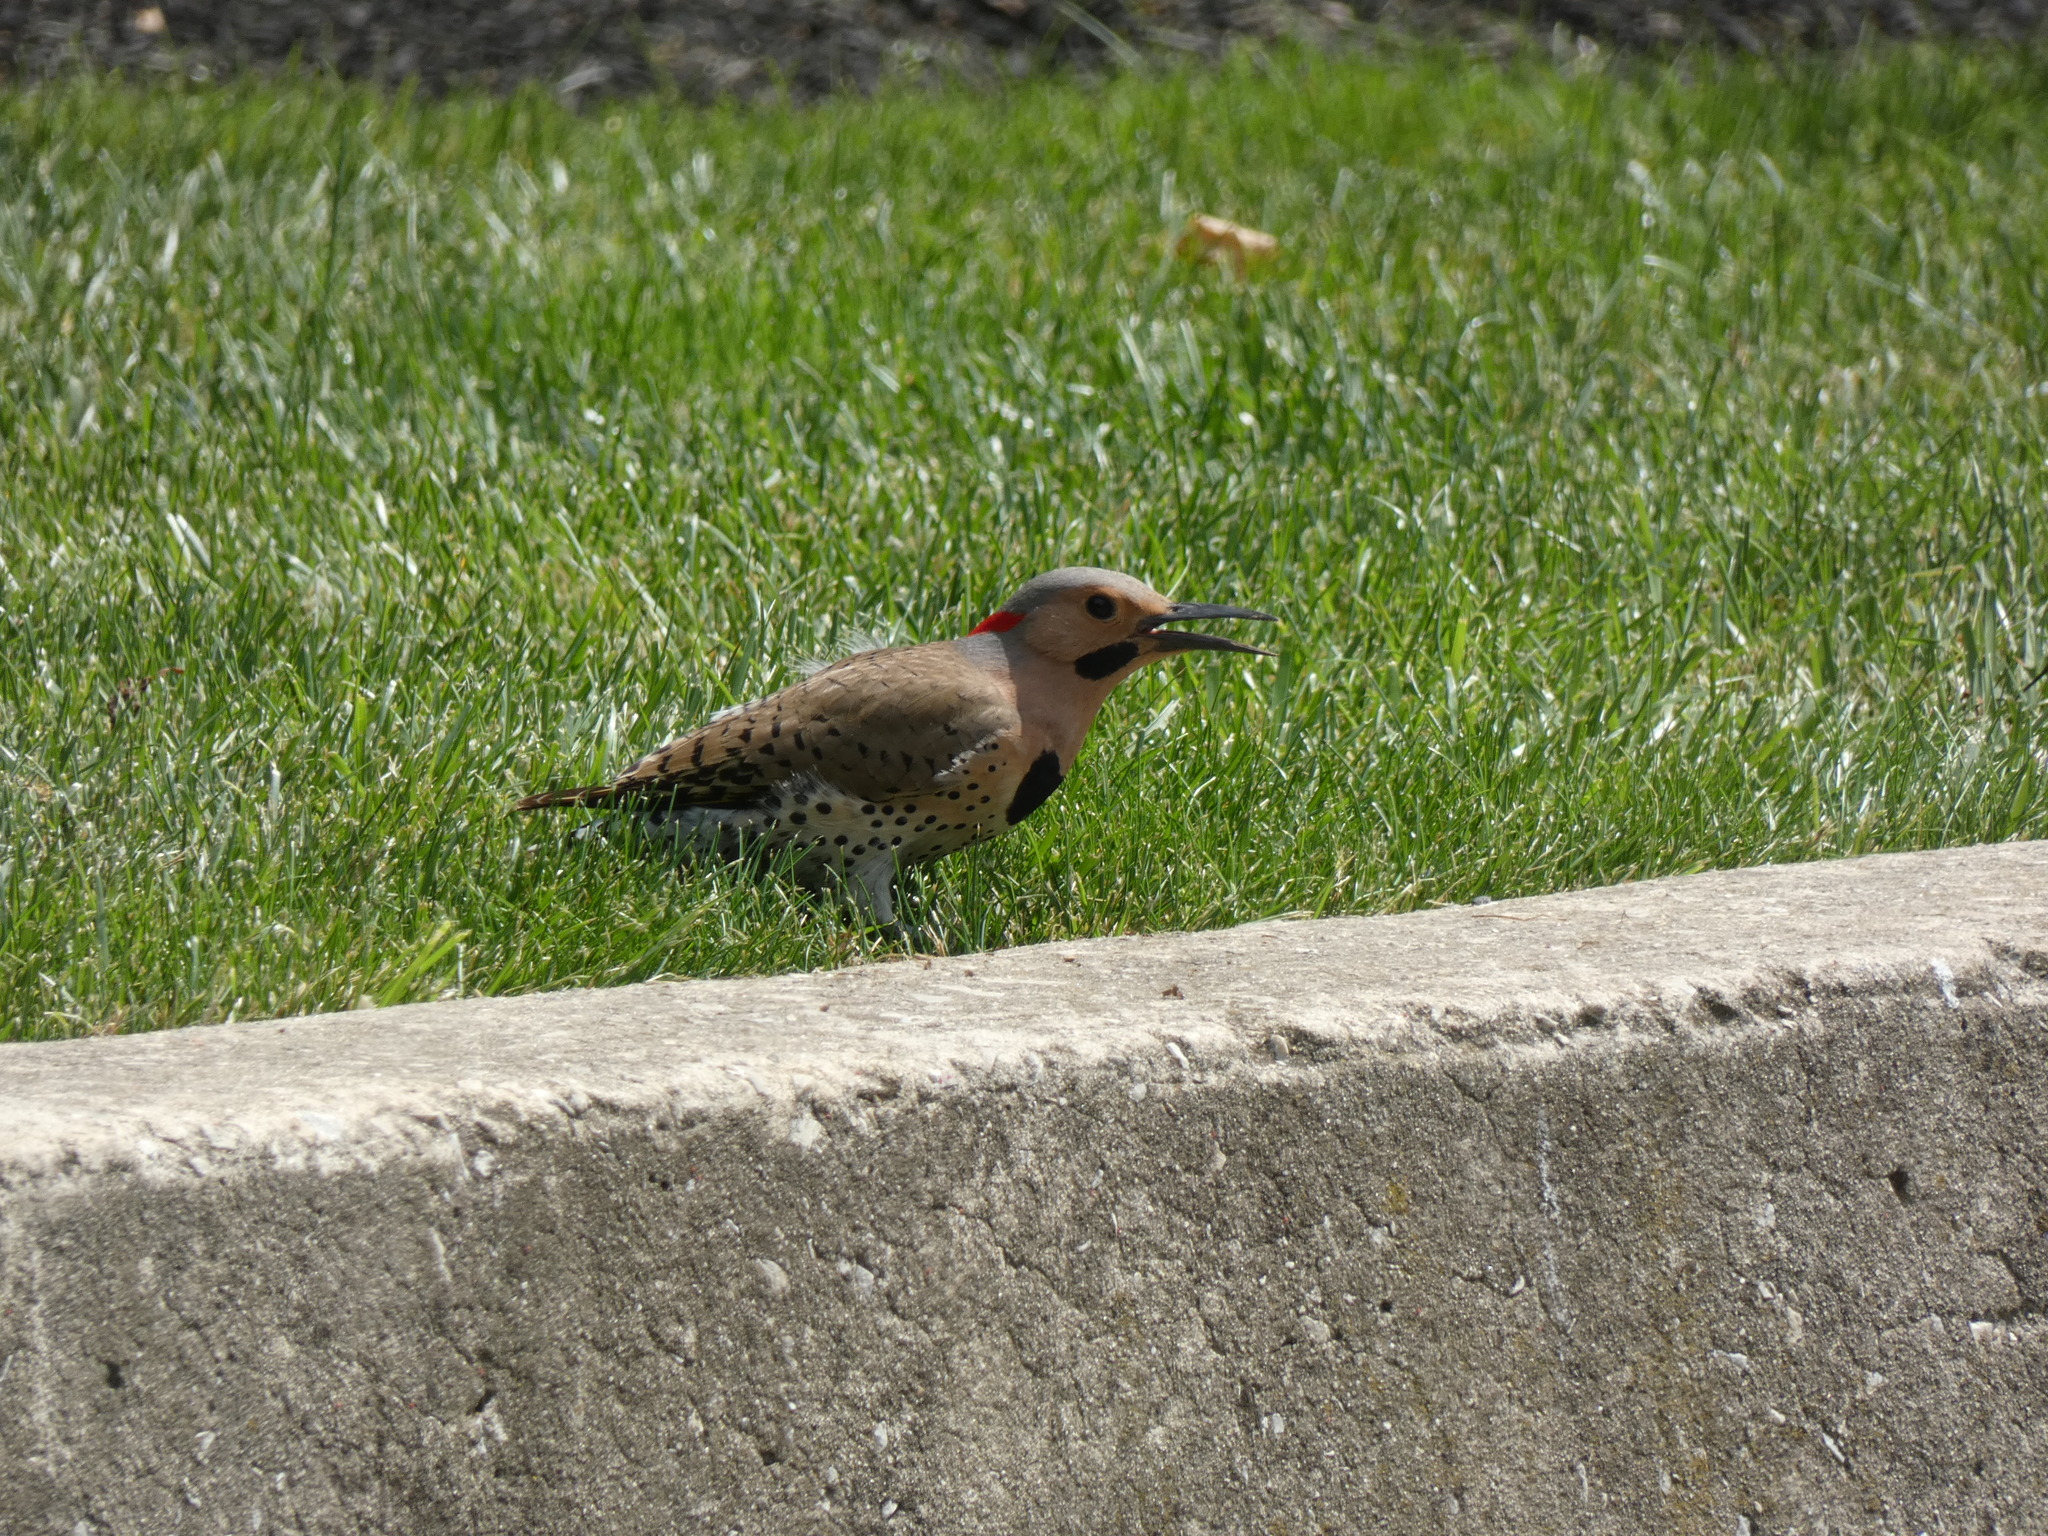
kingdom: Animalia
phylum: Chordata
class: Aves
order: Piciformes
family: Picidae
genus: Colaptes
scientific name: Colaptes auratus
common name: Northern flicker
